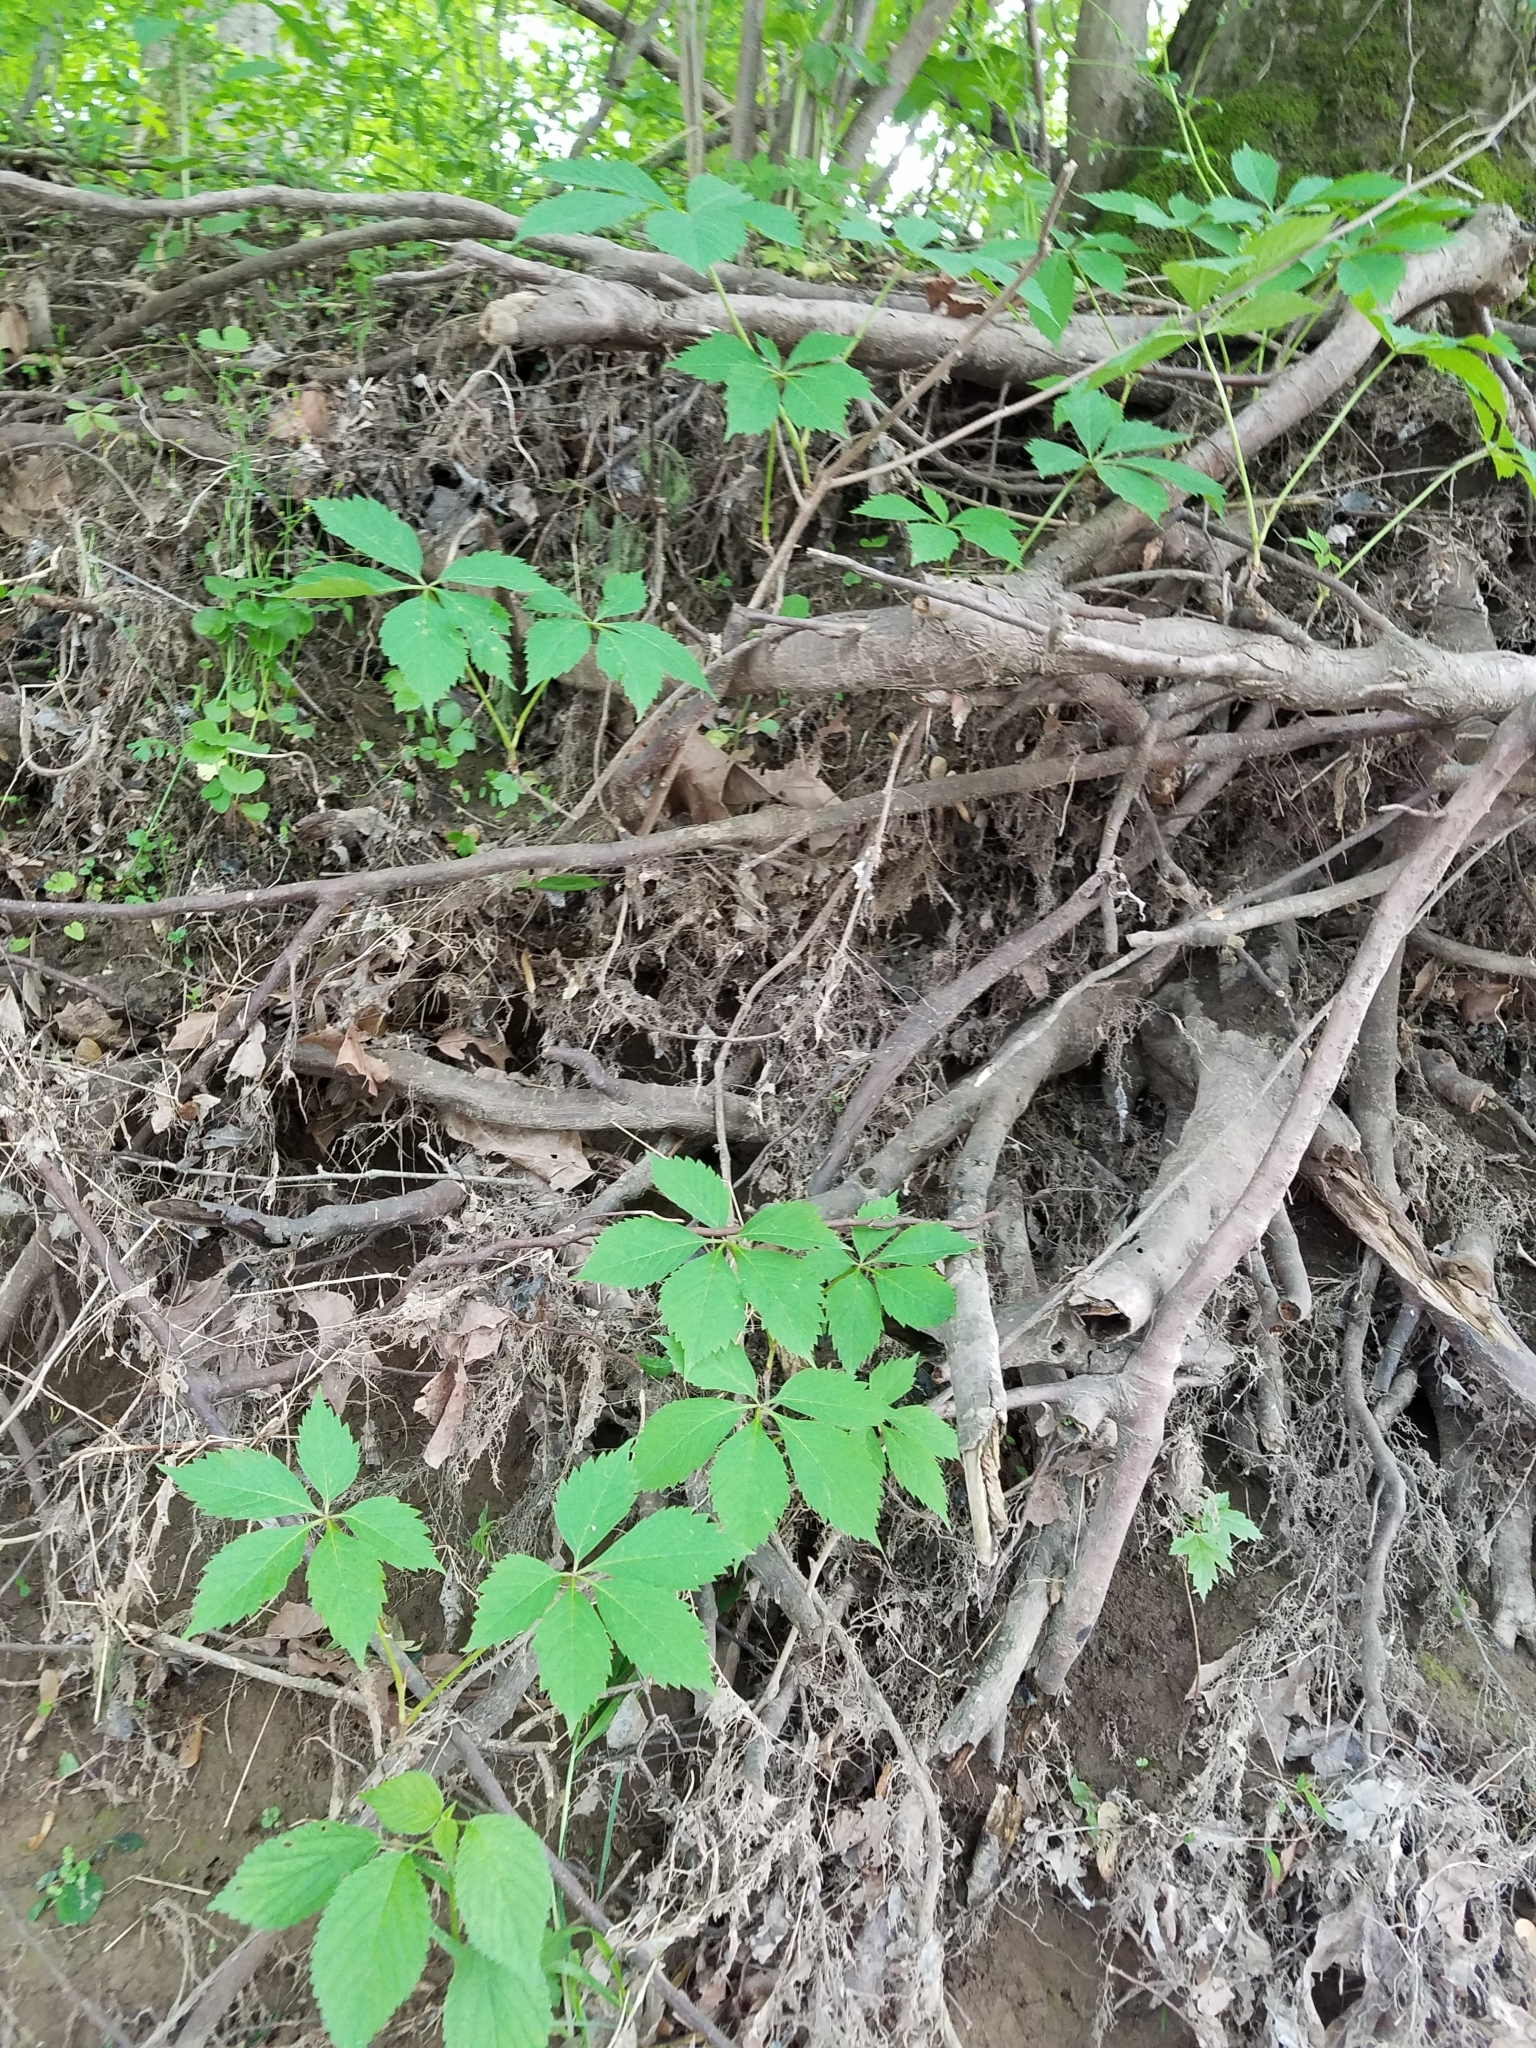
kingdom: Plantae
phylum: Tracheophyta
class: Magnoliopsida
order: Vitales
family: Vitaceae
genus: Parthenocissus
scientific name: Parthenocissus quinquefolia
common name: Virginia-creeper
